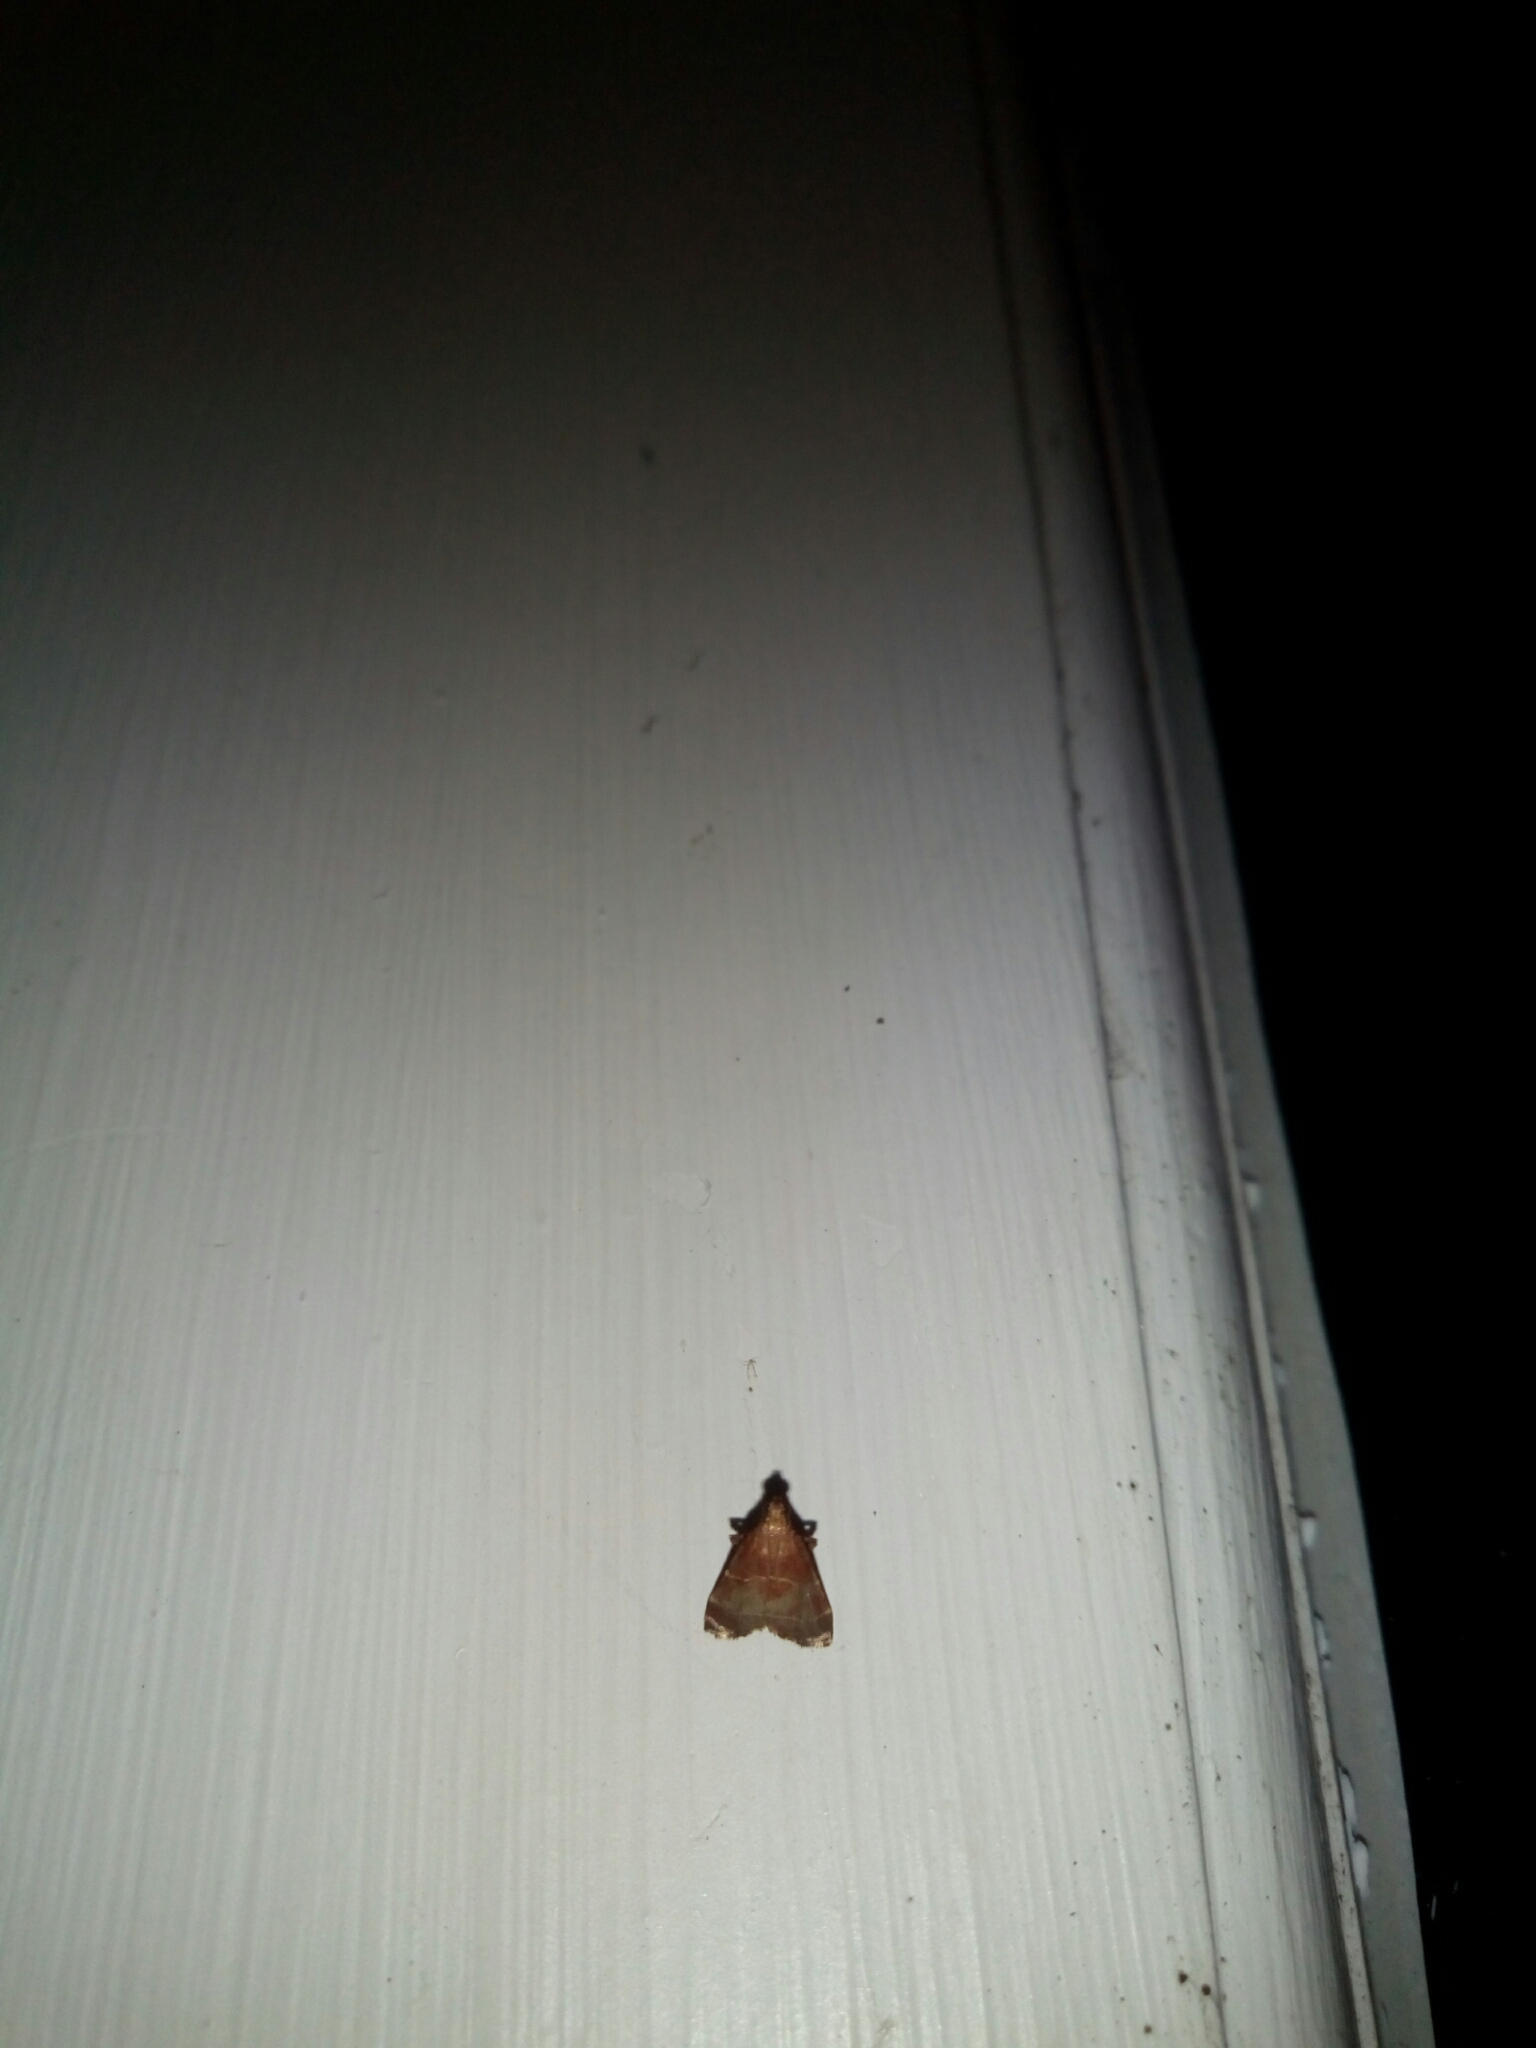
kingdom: Animalia
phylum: Arthropoda
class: Insecta
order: Lepidoptera
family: Pyralidae
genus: Arta
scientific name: Arta statalis
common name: Posturing arta moth
